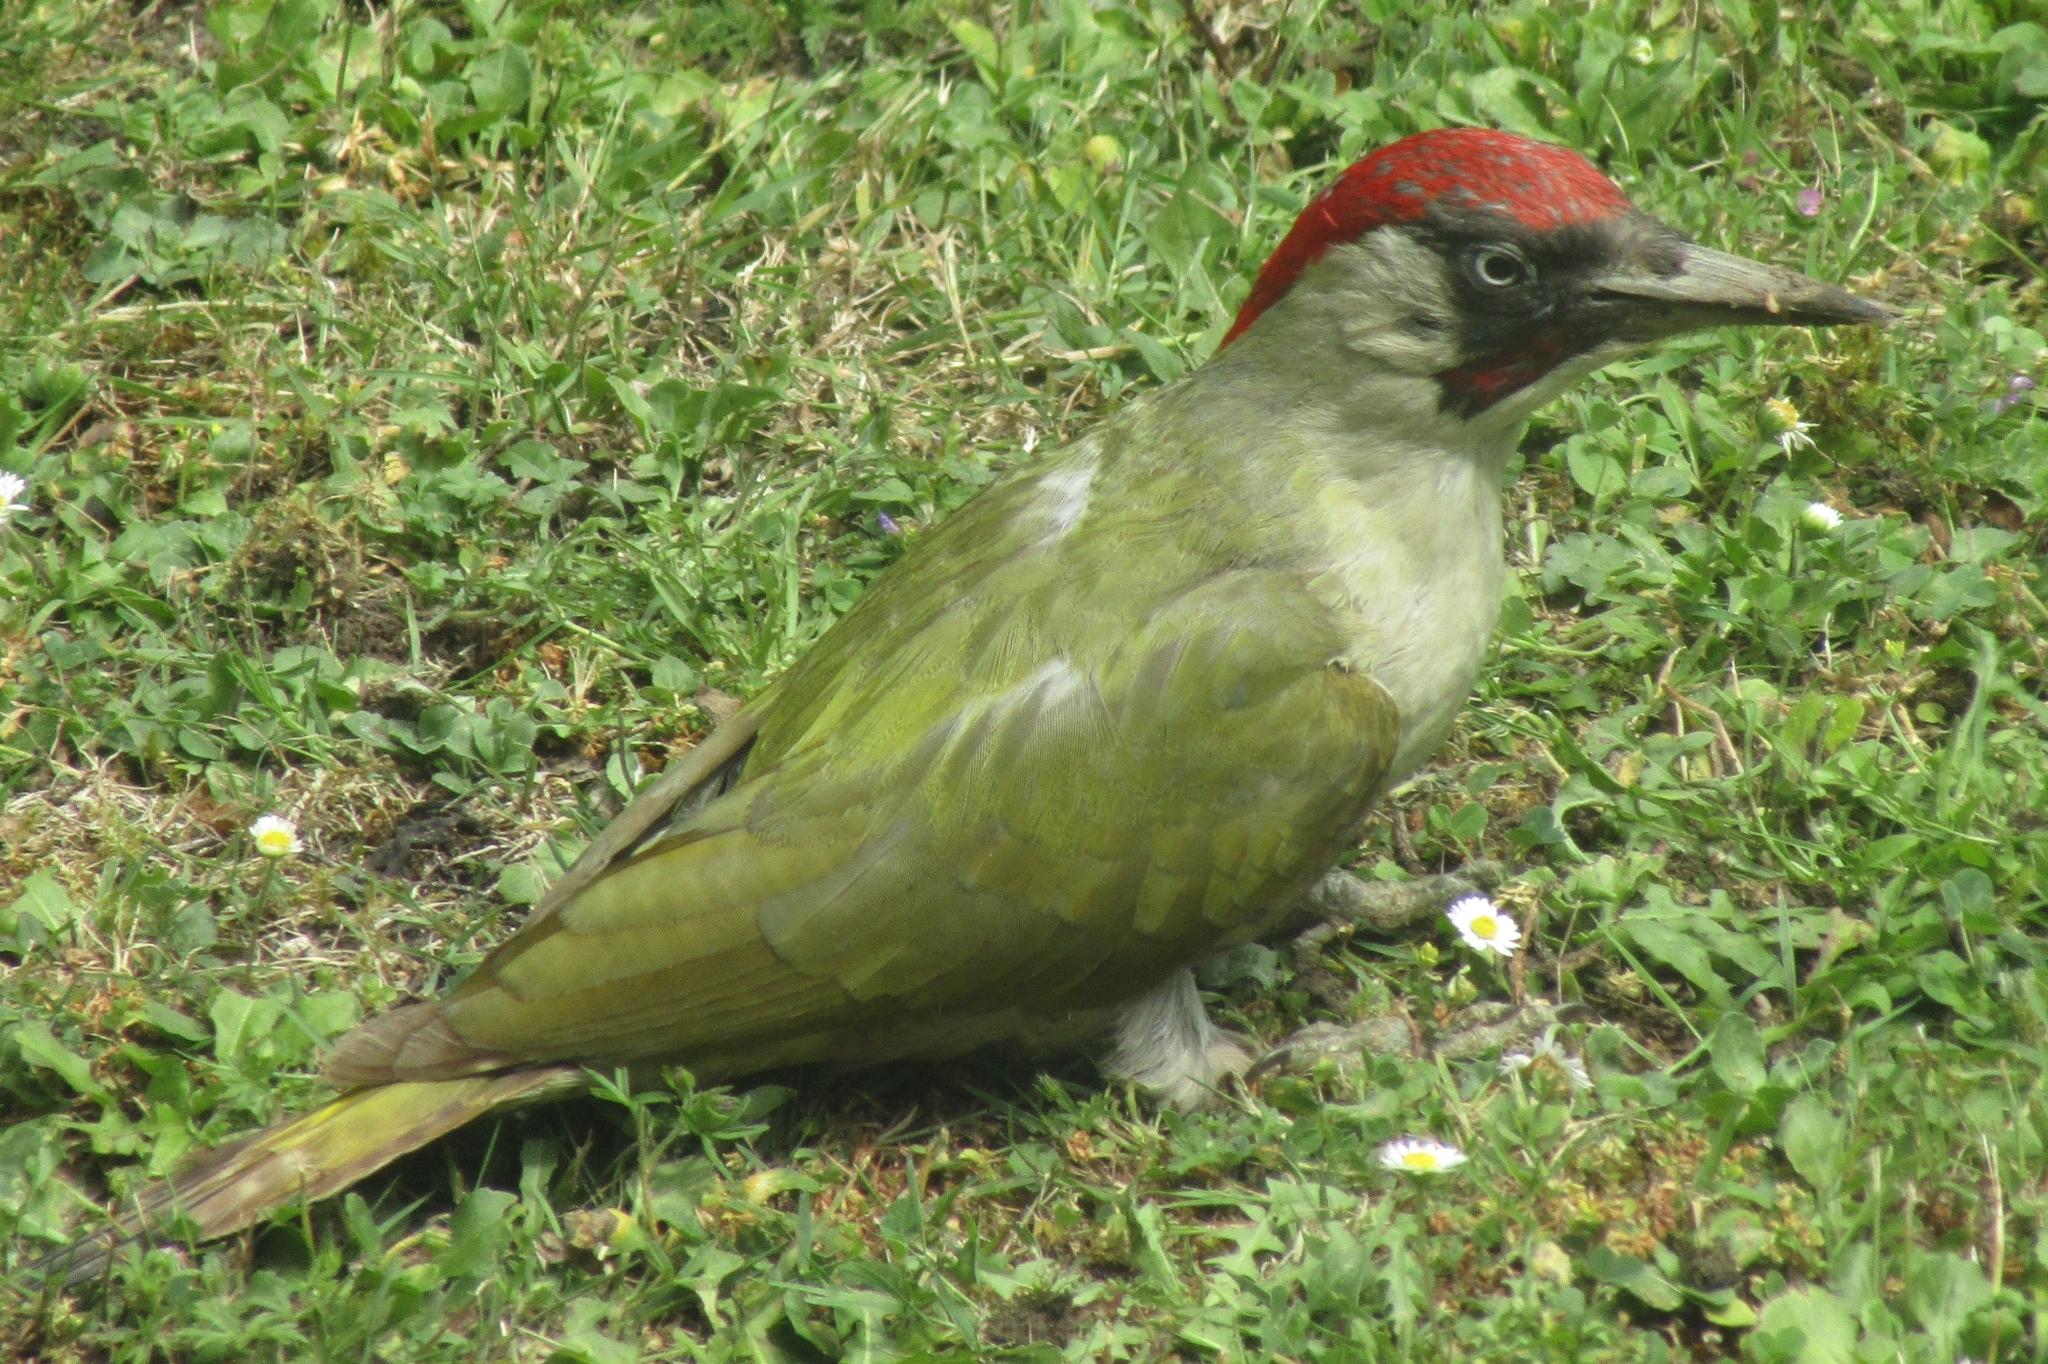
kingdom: Animalia
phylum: Chordata
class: Aves
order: Piciformes
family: Picidae
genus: Picus
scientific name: Picus viridis
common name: European green woodpecker
